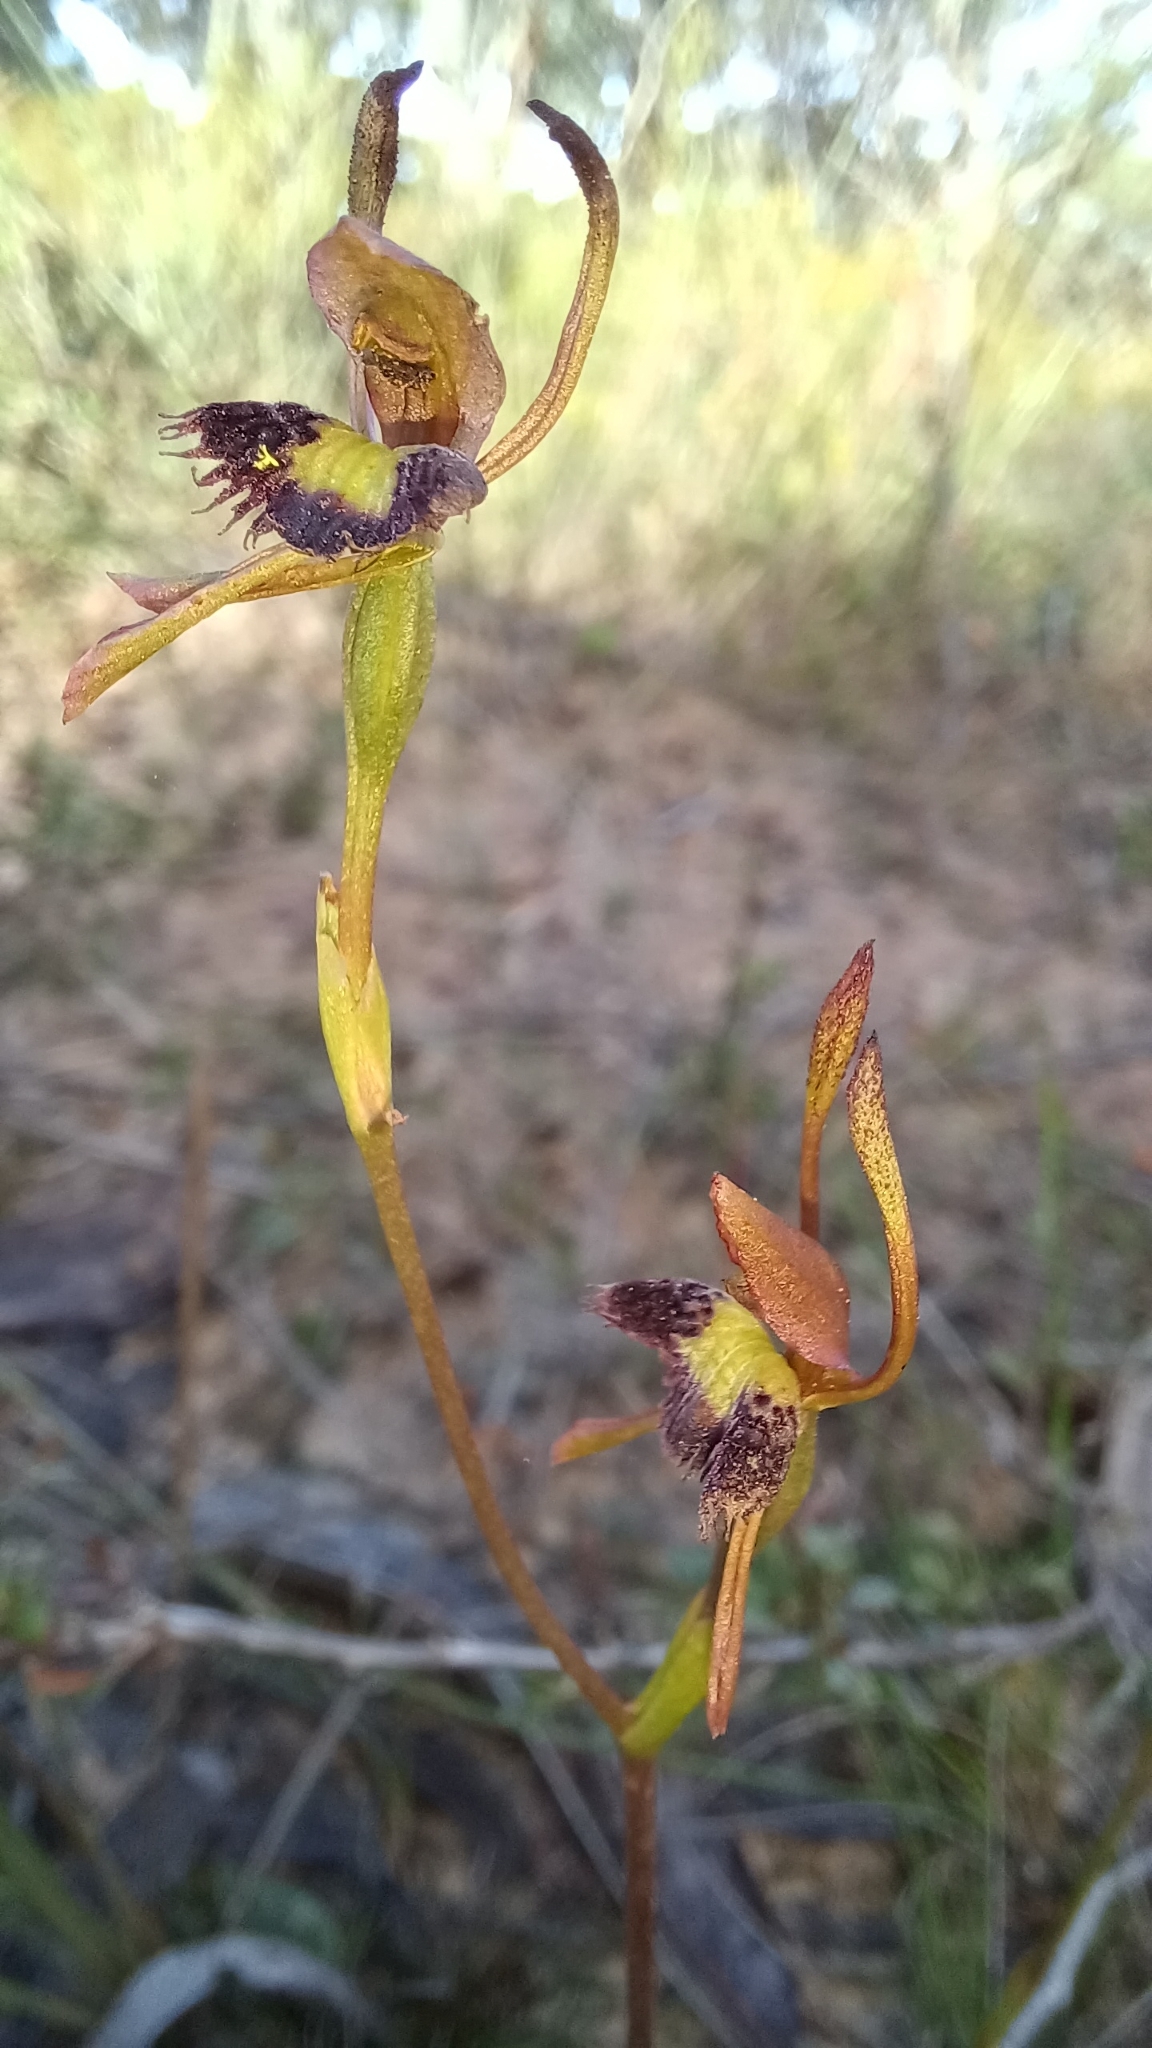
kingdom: Plantae
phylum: Tracheophyta
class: Liliopsida
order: Asparagales
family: Orchidaceae
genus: Leporella
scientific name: Leporella fimbriata
